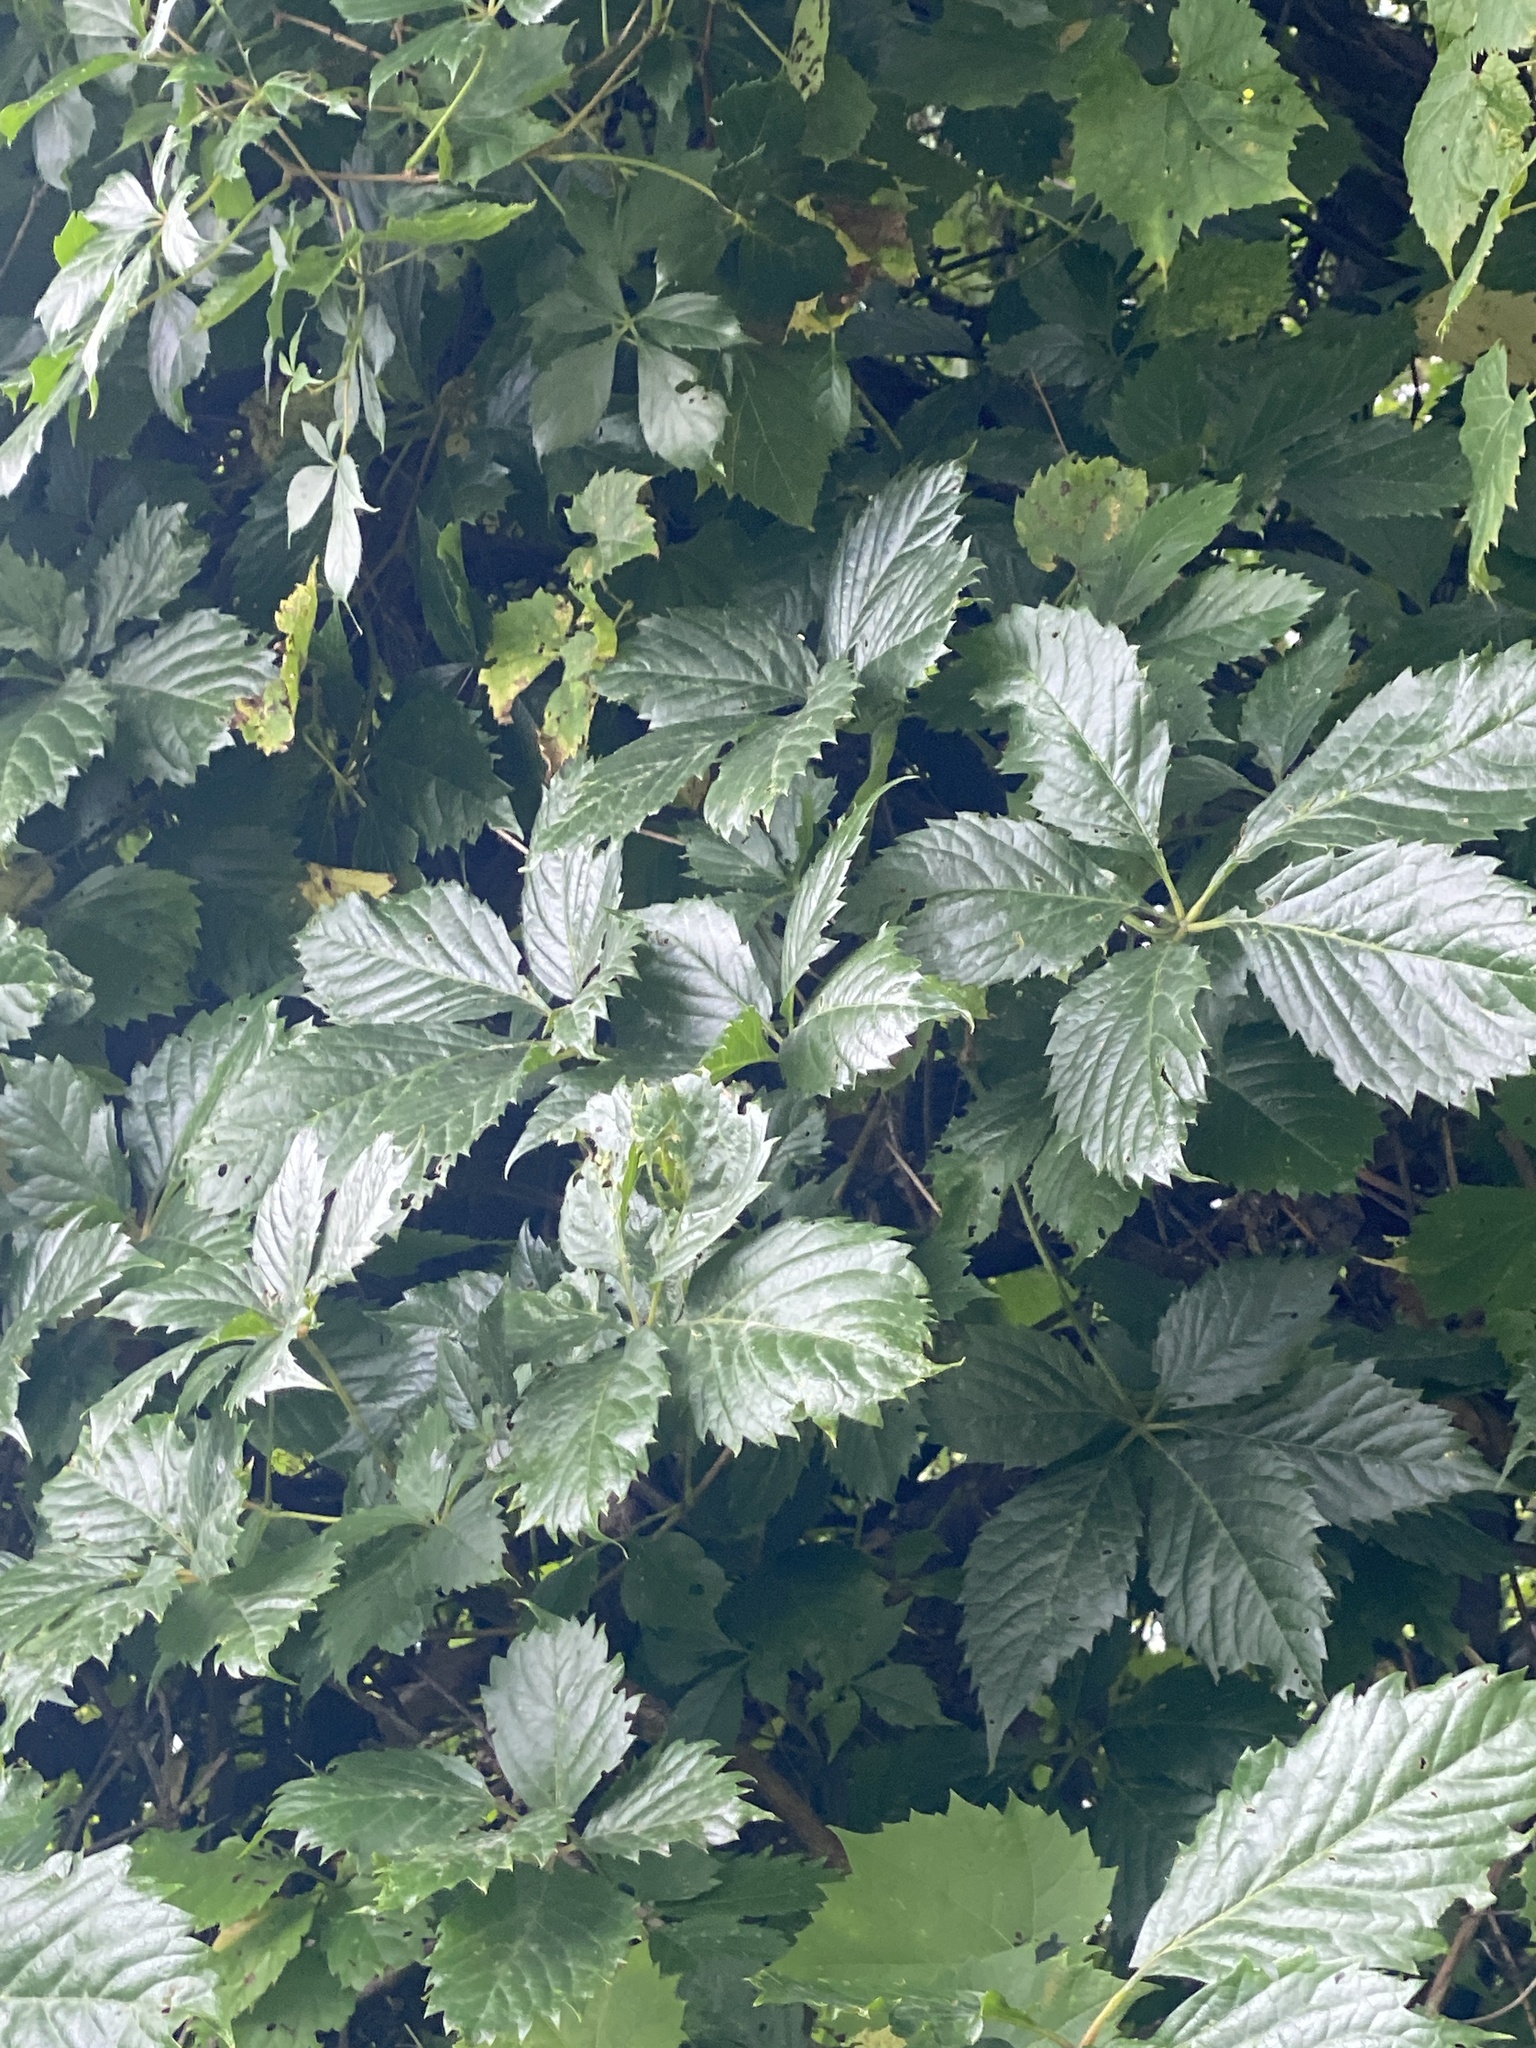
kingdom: Plantae
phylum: Tracheophyta
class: Magnoliopsida
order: Vitales
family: Vitaceae
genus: Parthenocissus
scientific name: Parthenocissus inserta
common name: False virginia-creeper
